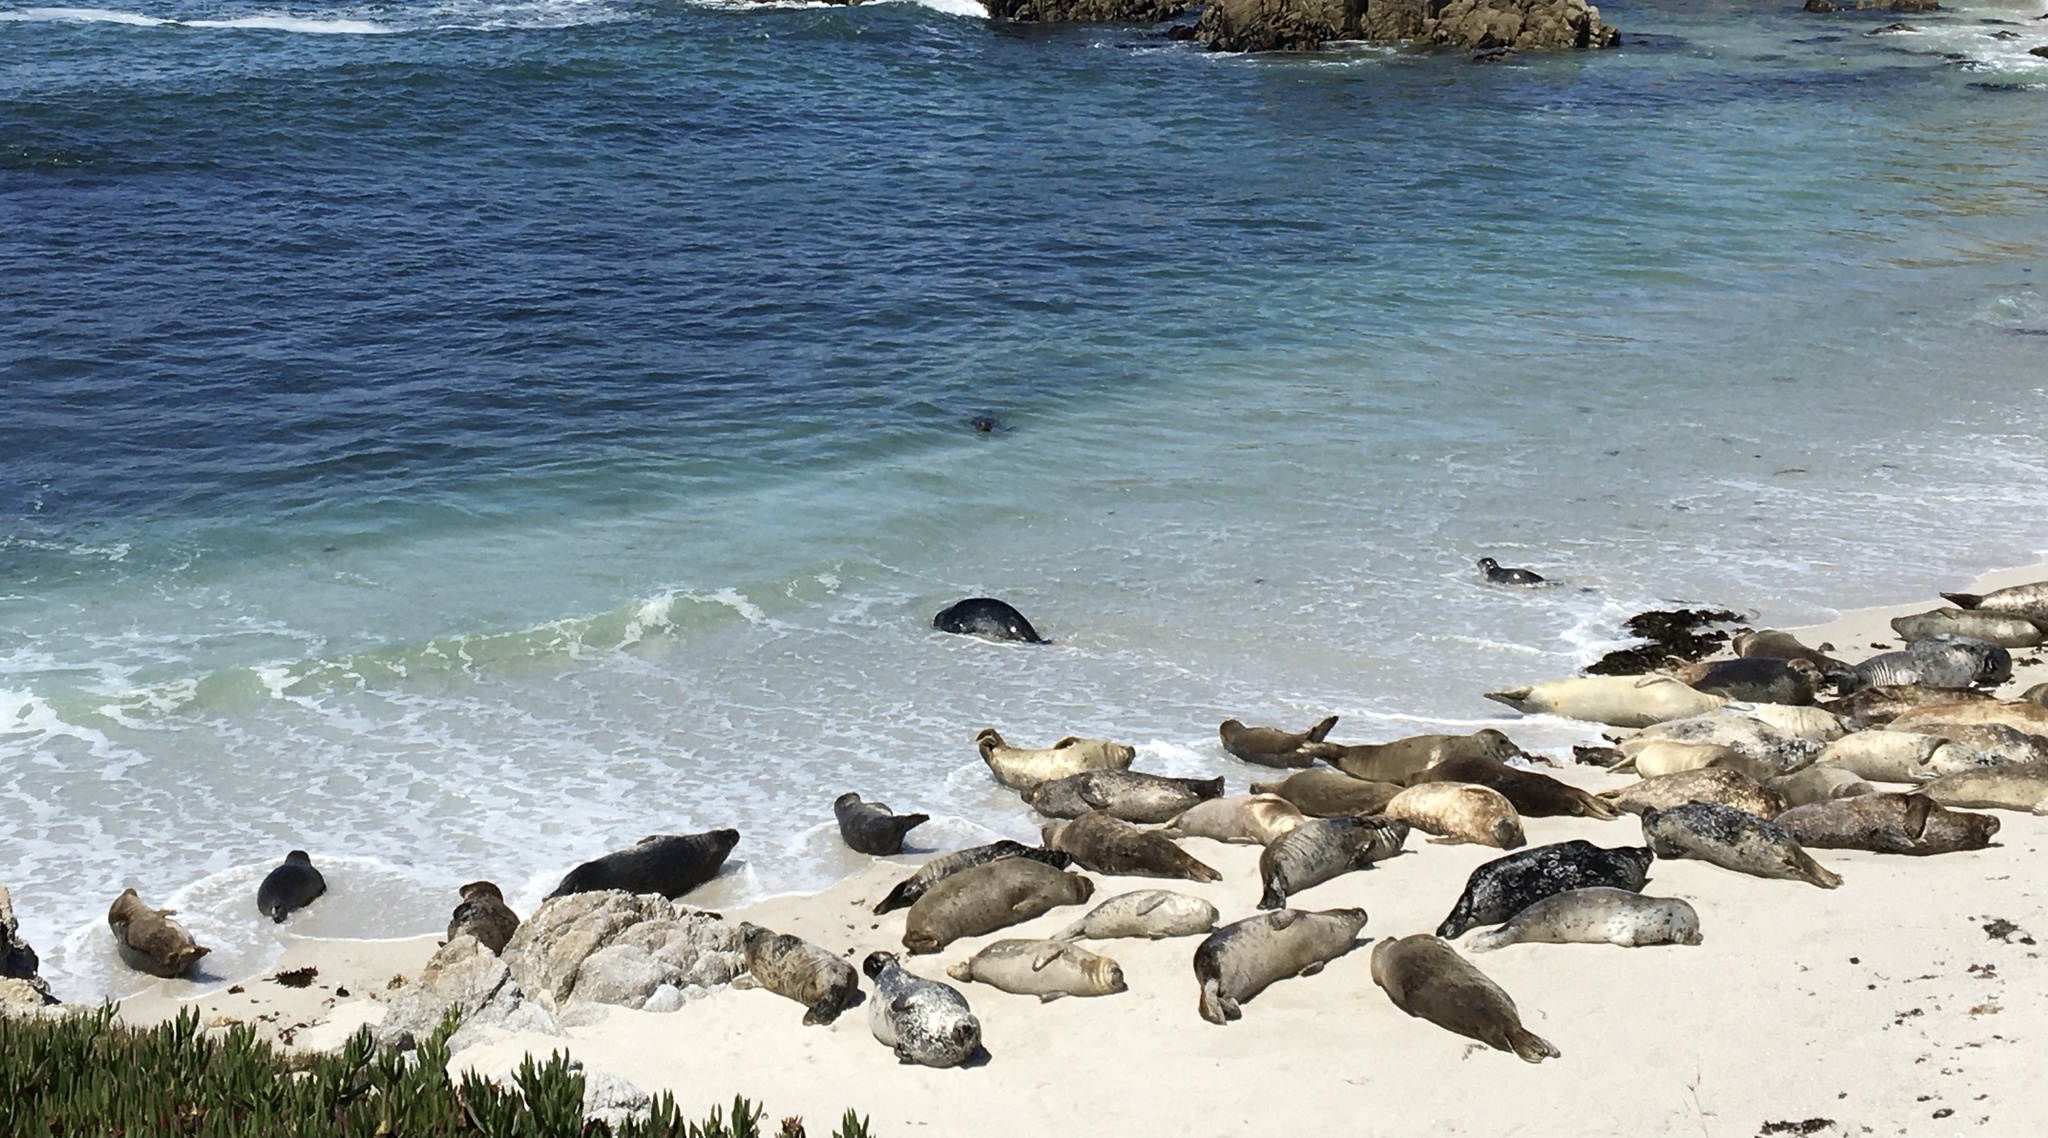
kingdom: Animalia
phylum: Chordata
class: Mammalia
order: Carnivora
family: Phocidae
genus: Phoca
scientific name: Phoca vitulina
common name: Harbor seal
